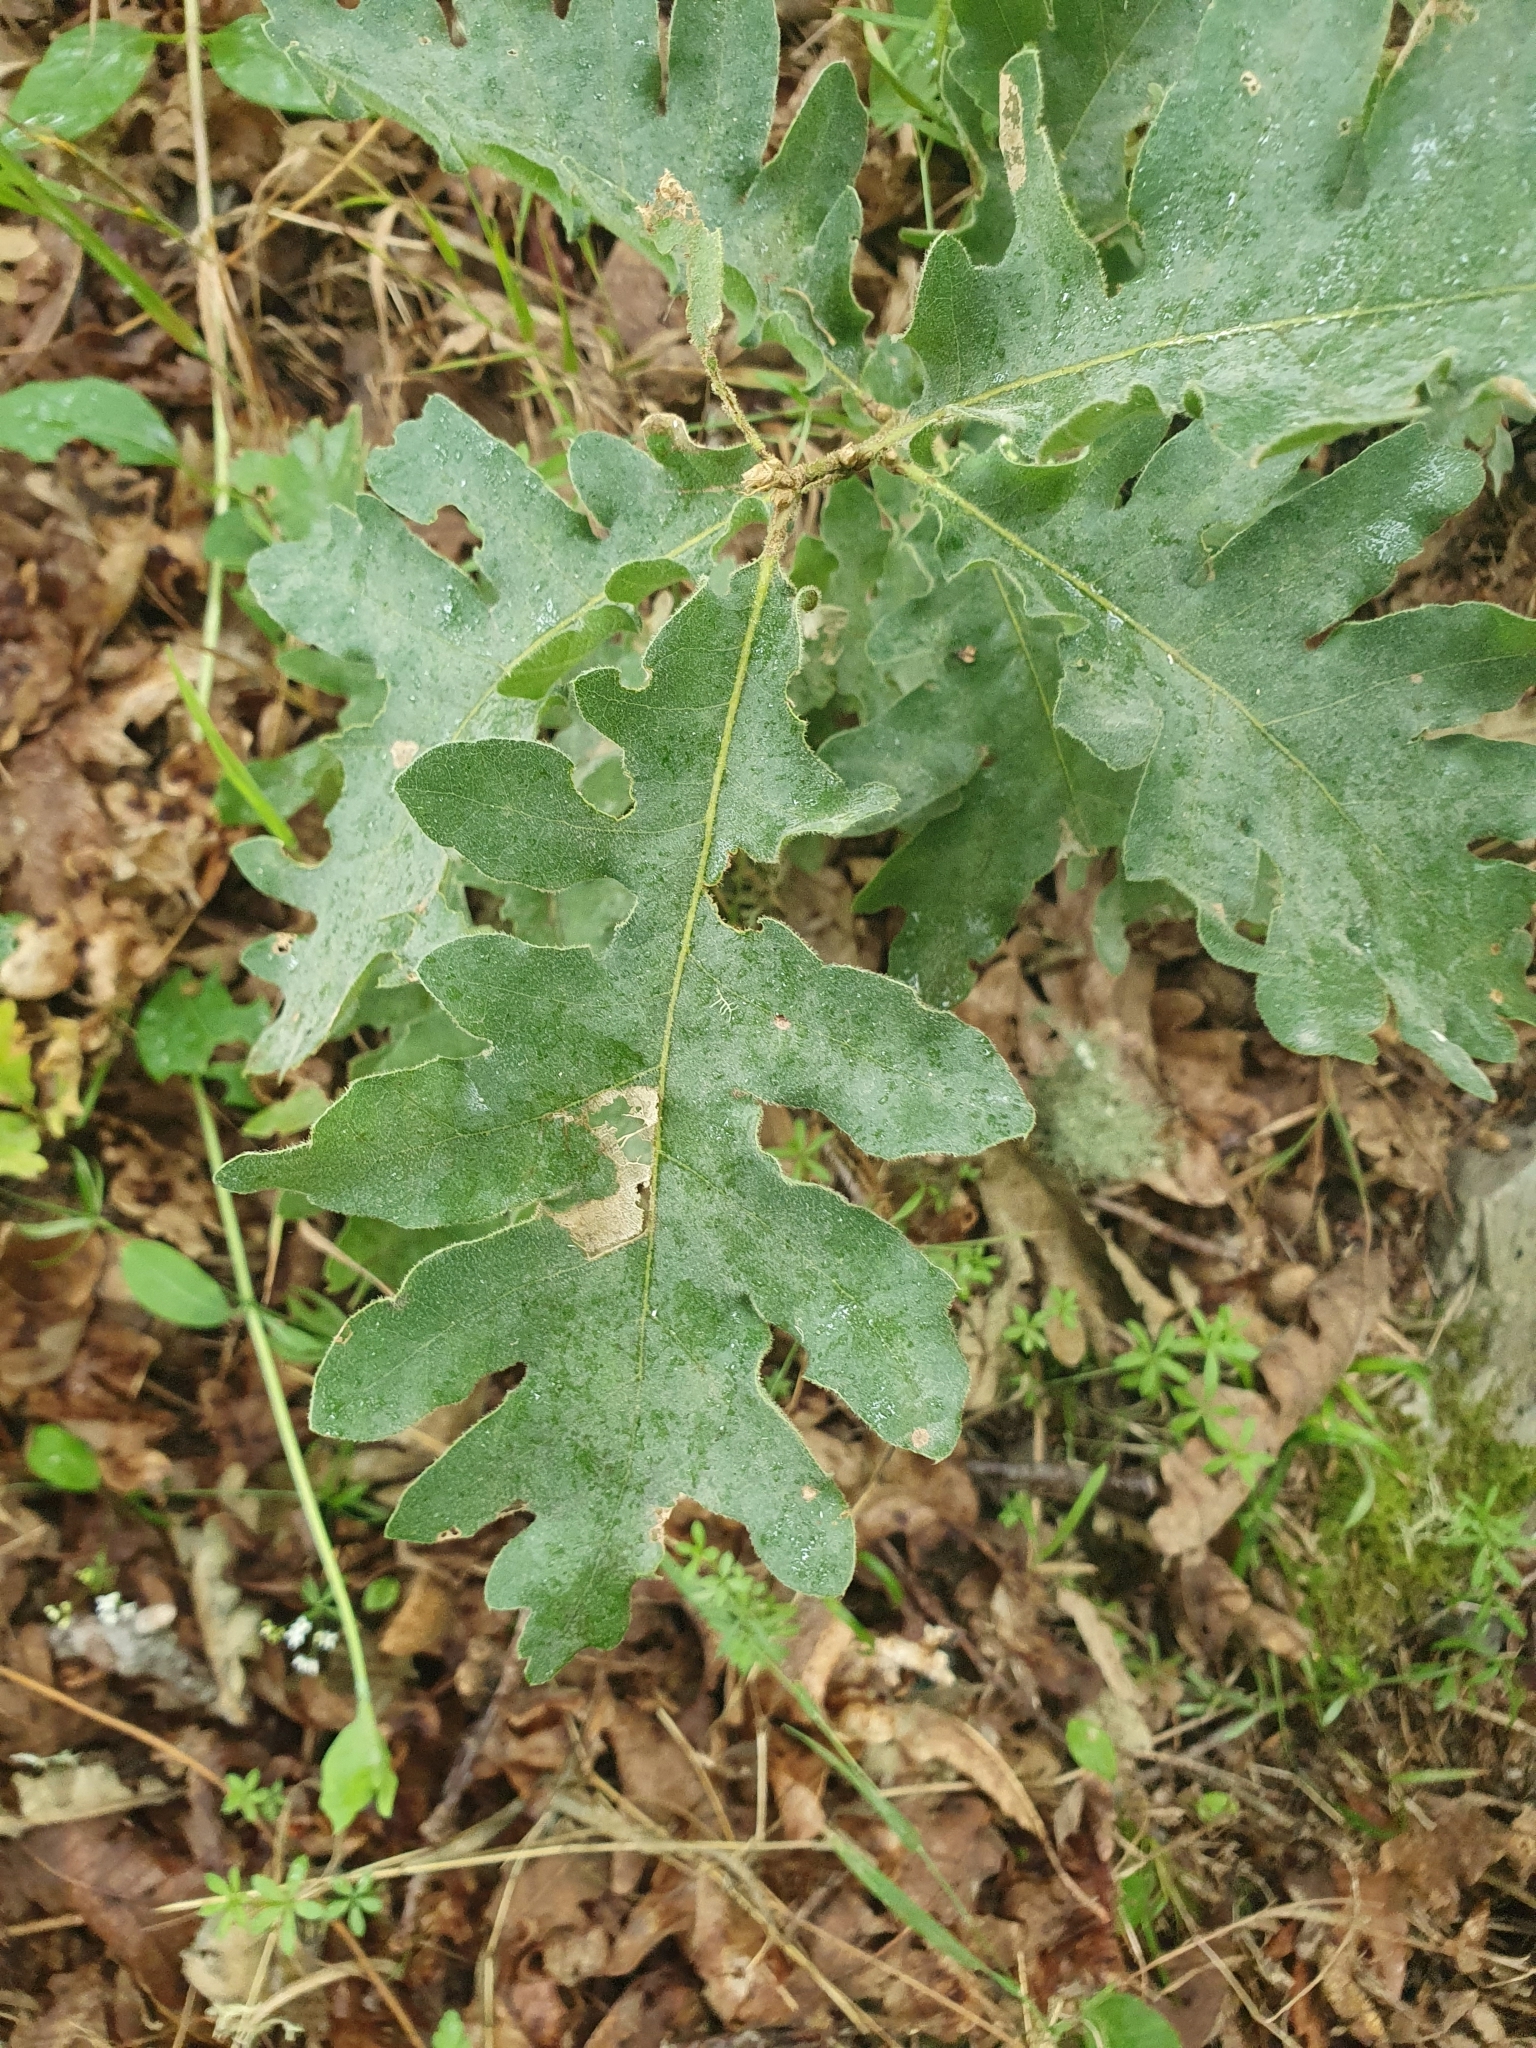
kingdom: Plantae
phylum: Tracheophyta
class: Magnoliopsida
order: Fagales
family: Fagaceae
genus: Quercus
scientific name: Quercus pyrenaica
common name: Pyrenean oak
